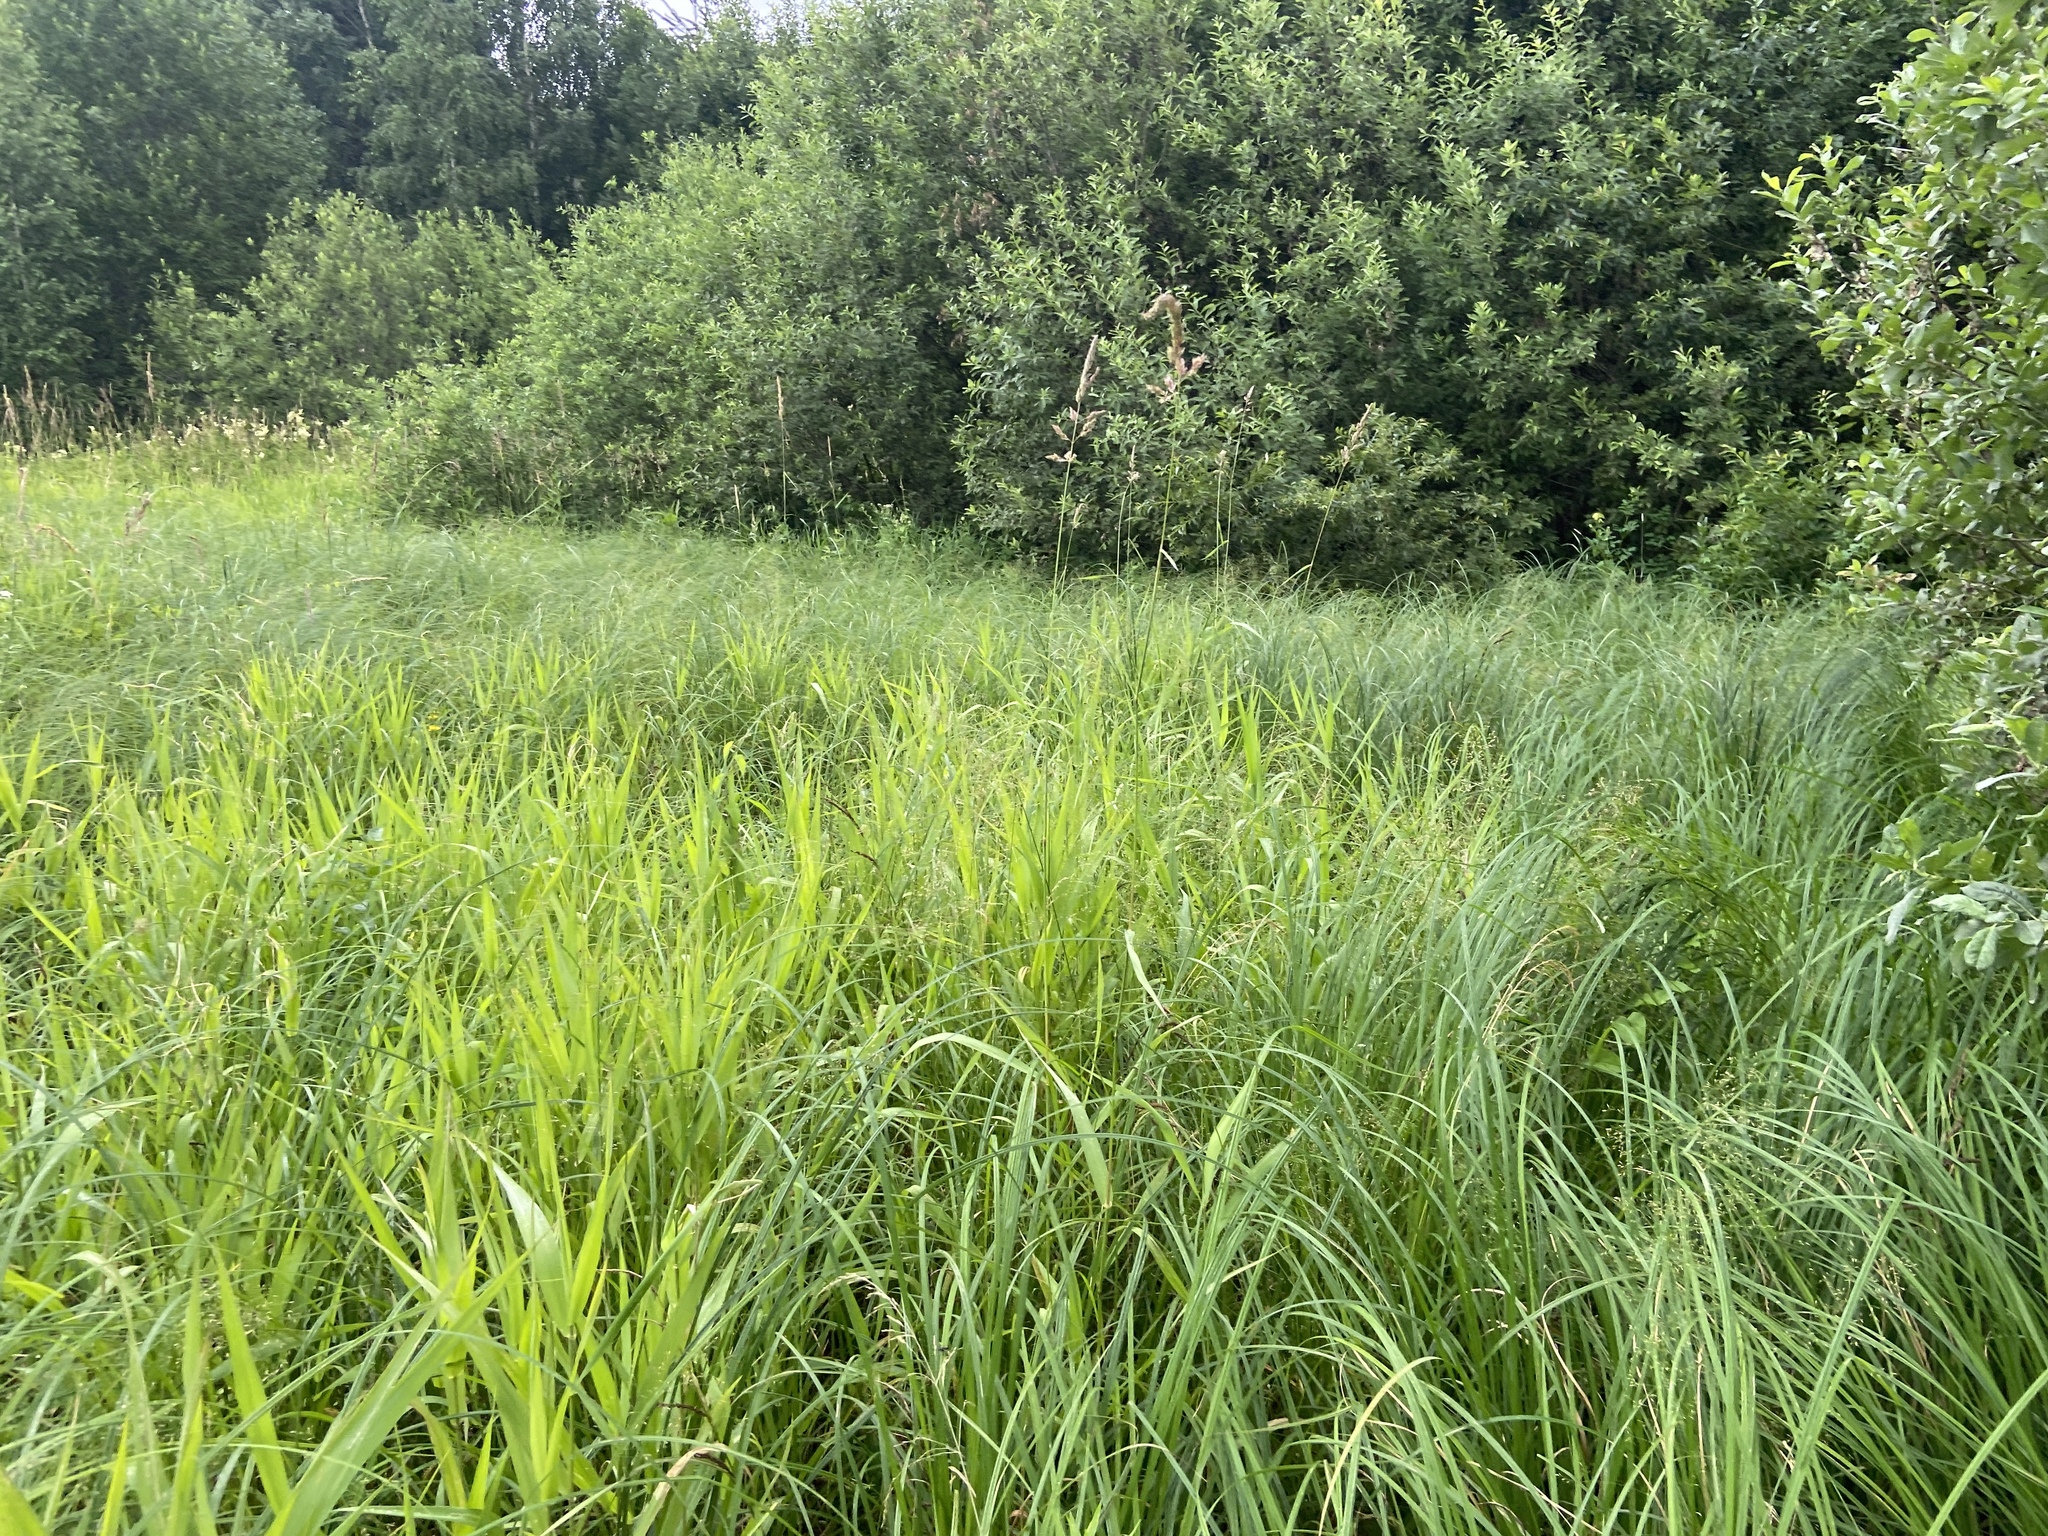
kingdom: Plantae
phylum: Tracheophyta
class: Liliopsida
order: Poales
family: Poaceae
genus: Phalaris
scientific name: Phalaris arundinacea
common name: Reed canary-grass
